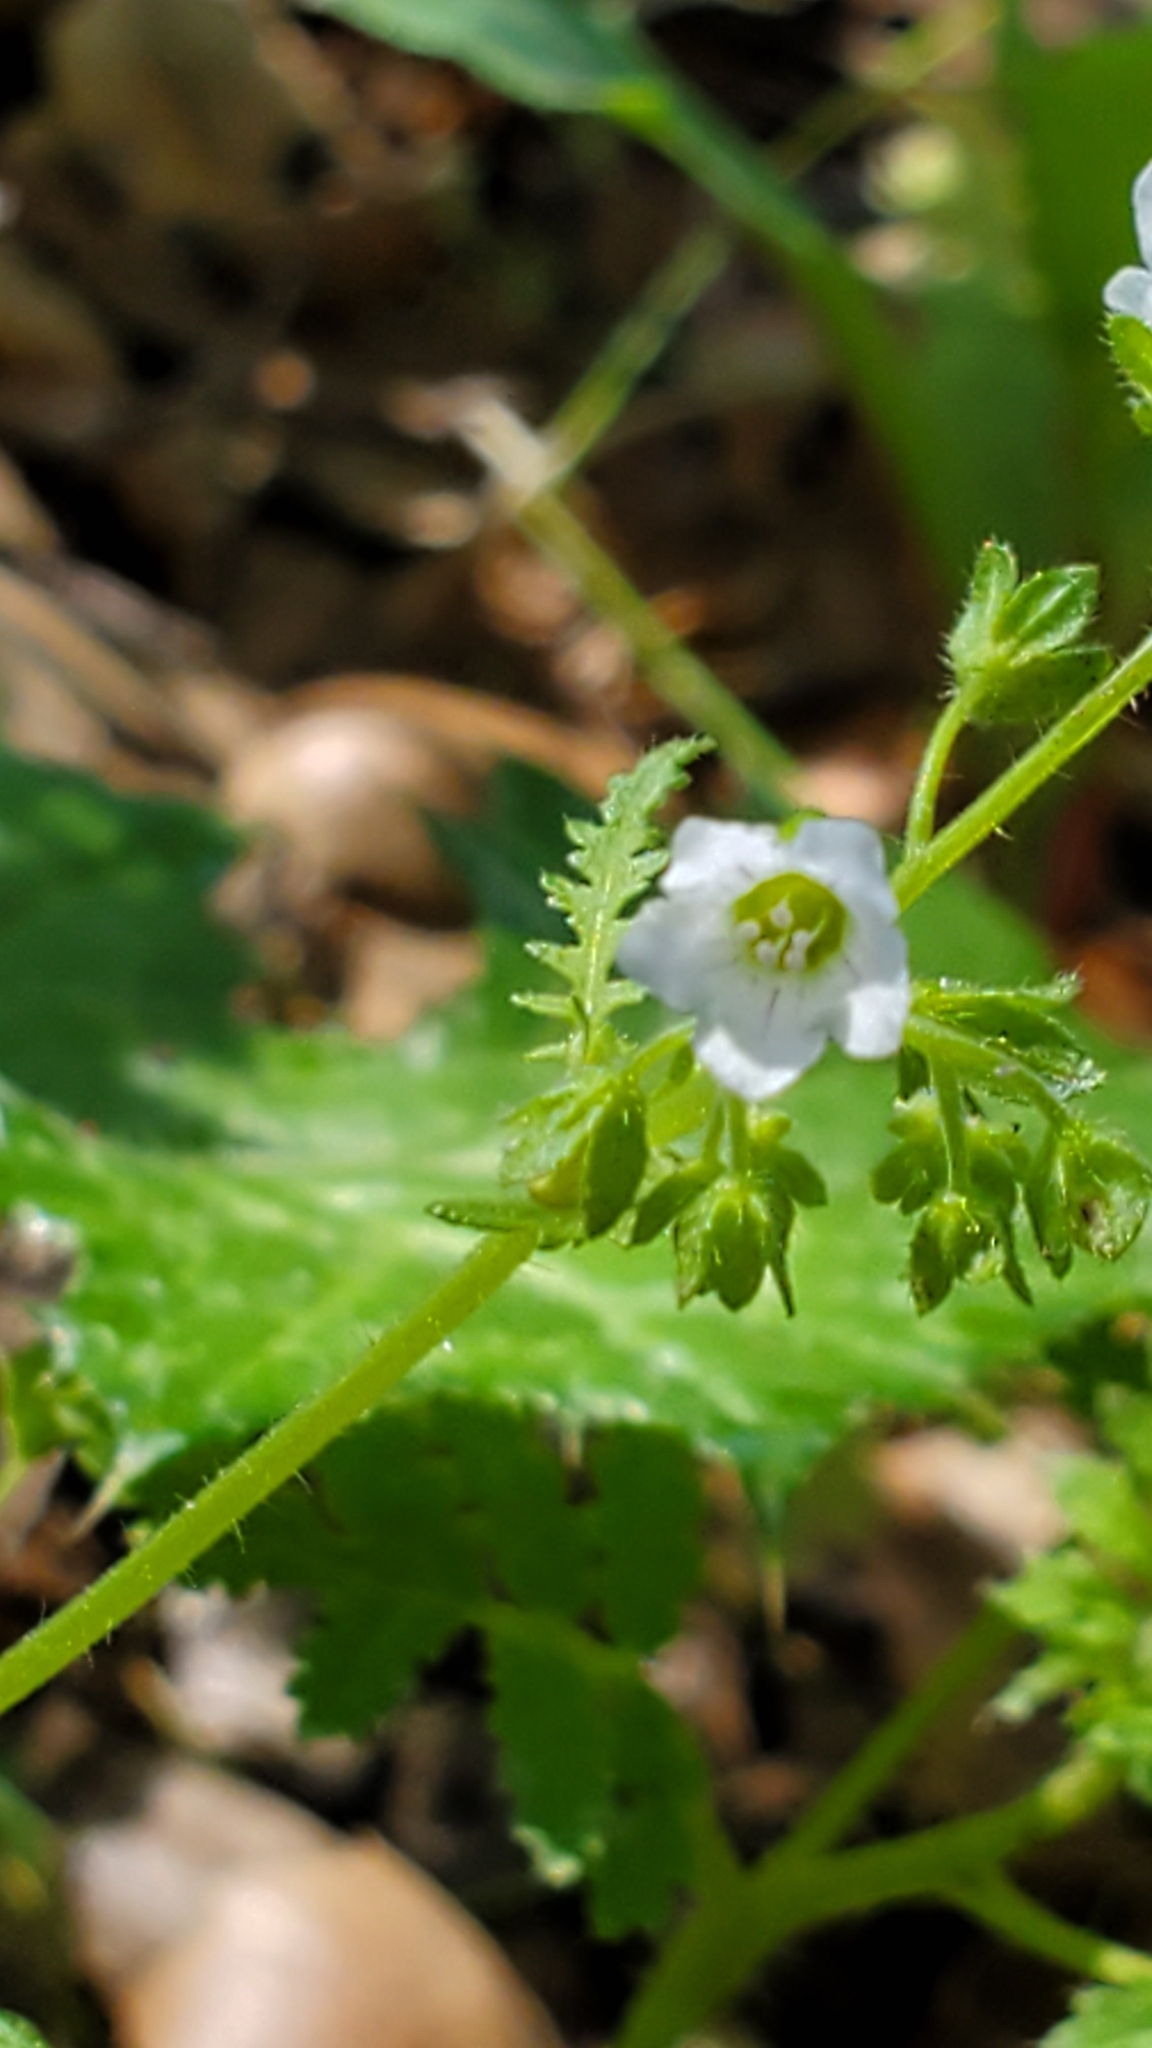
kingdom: Plantae
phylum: Tracheophyta
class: Magnoliopsida
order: Boraginales
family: Hydrophyllaceae
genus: Eucrypta
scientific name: Eucrypta chrysanthemifolia
